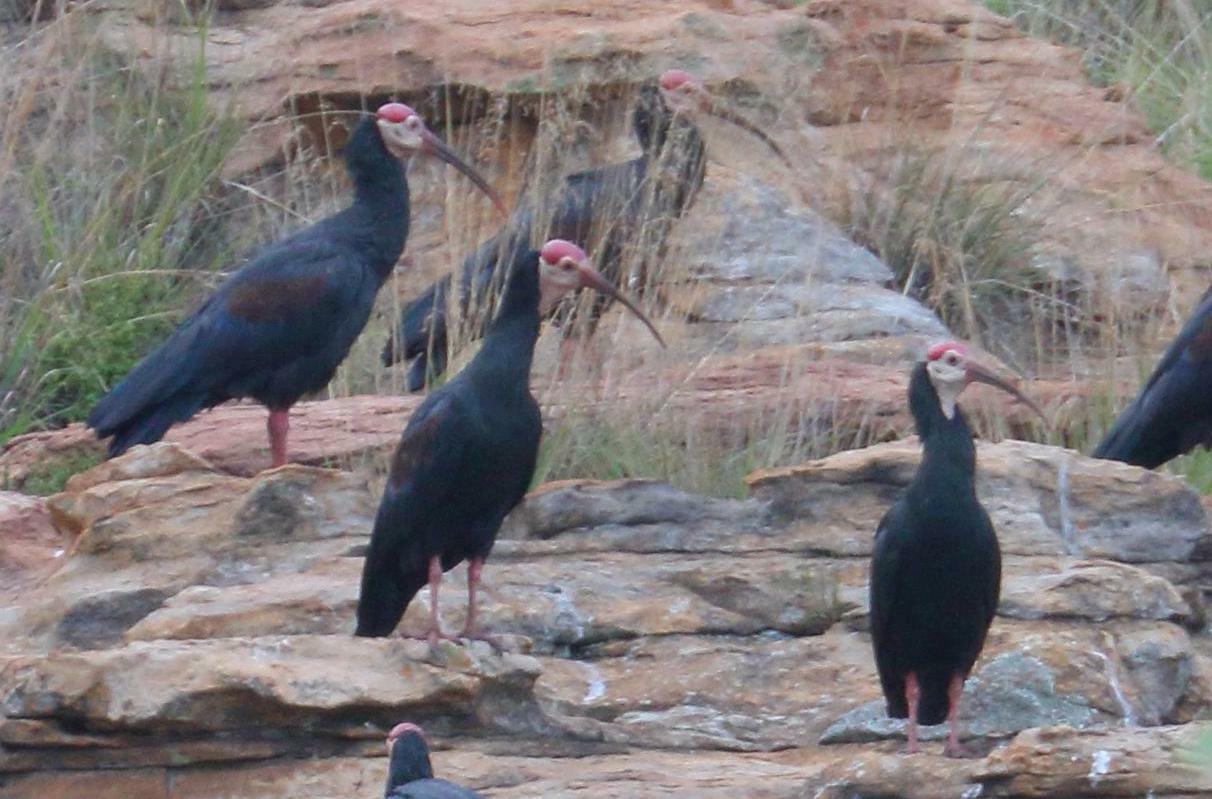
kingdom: Animalia
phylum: Chordata
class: Aves
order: Pelecaniformes
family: Threskiornithidae
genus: Geronticus
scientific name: Geronticus calvus
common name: Southern bald ibis
